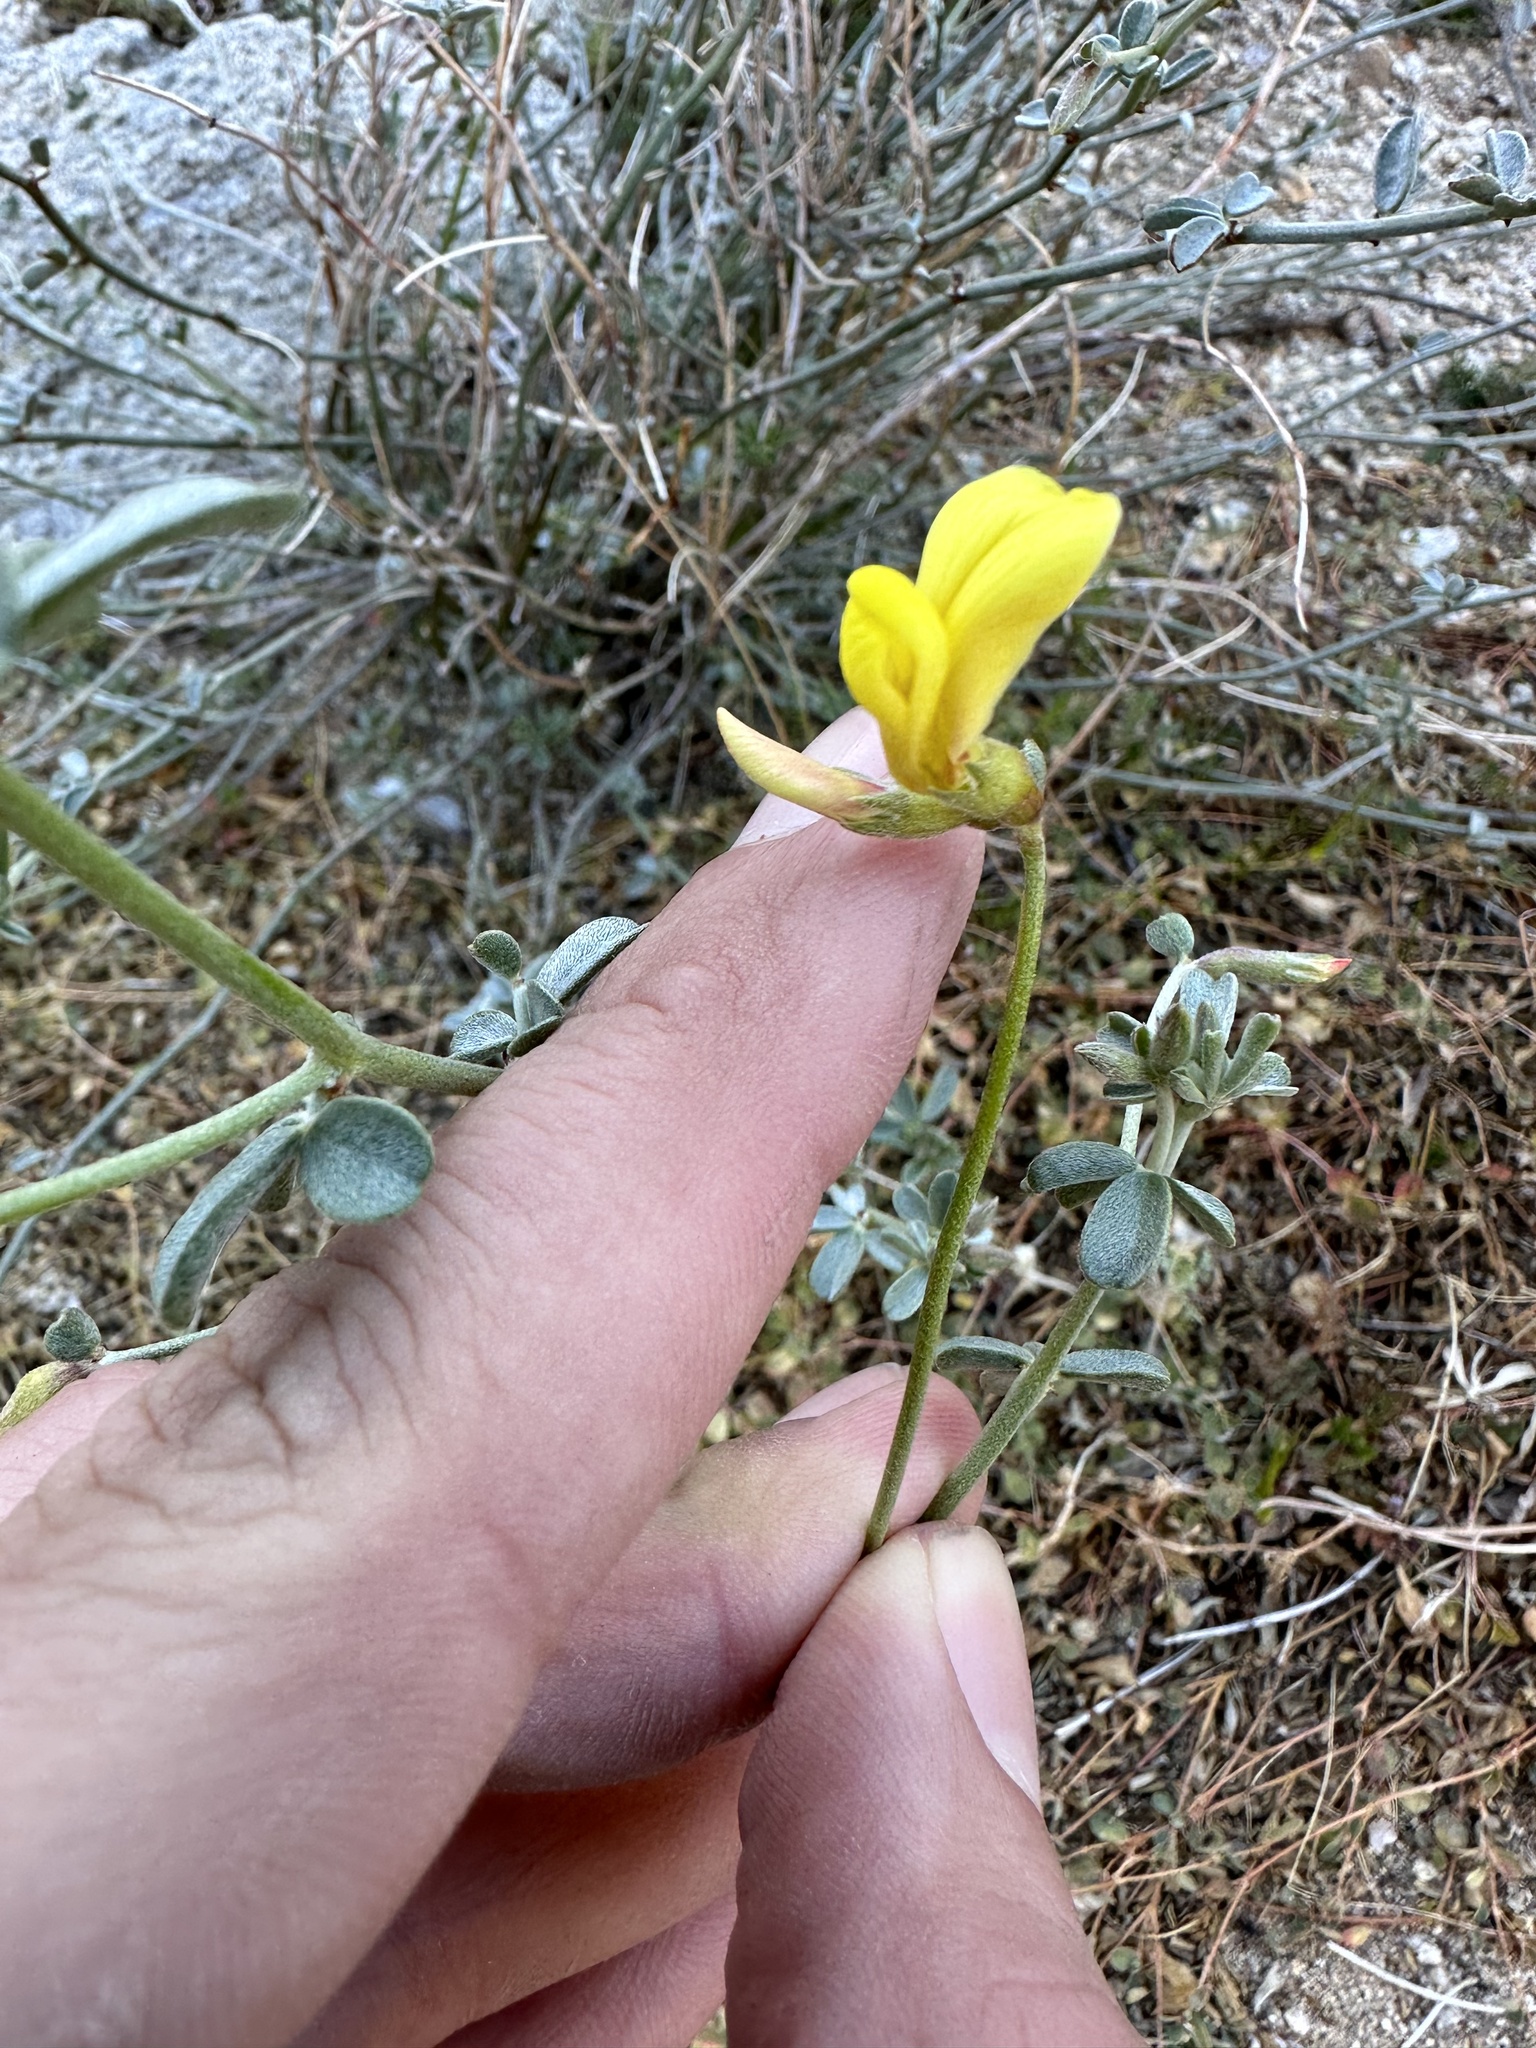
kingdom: Plantae
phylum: Tracheophyta
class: Magnoliopsida
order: Fabales
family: Fabaceae
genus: Acmispon
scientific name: Acmispon rigidus
